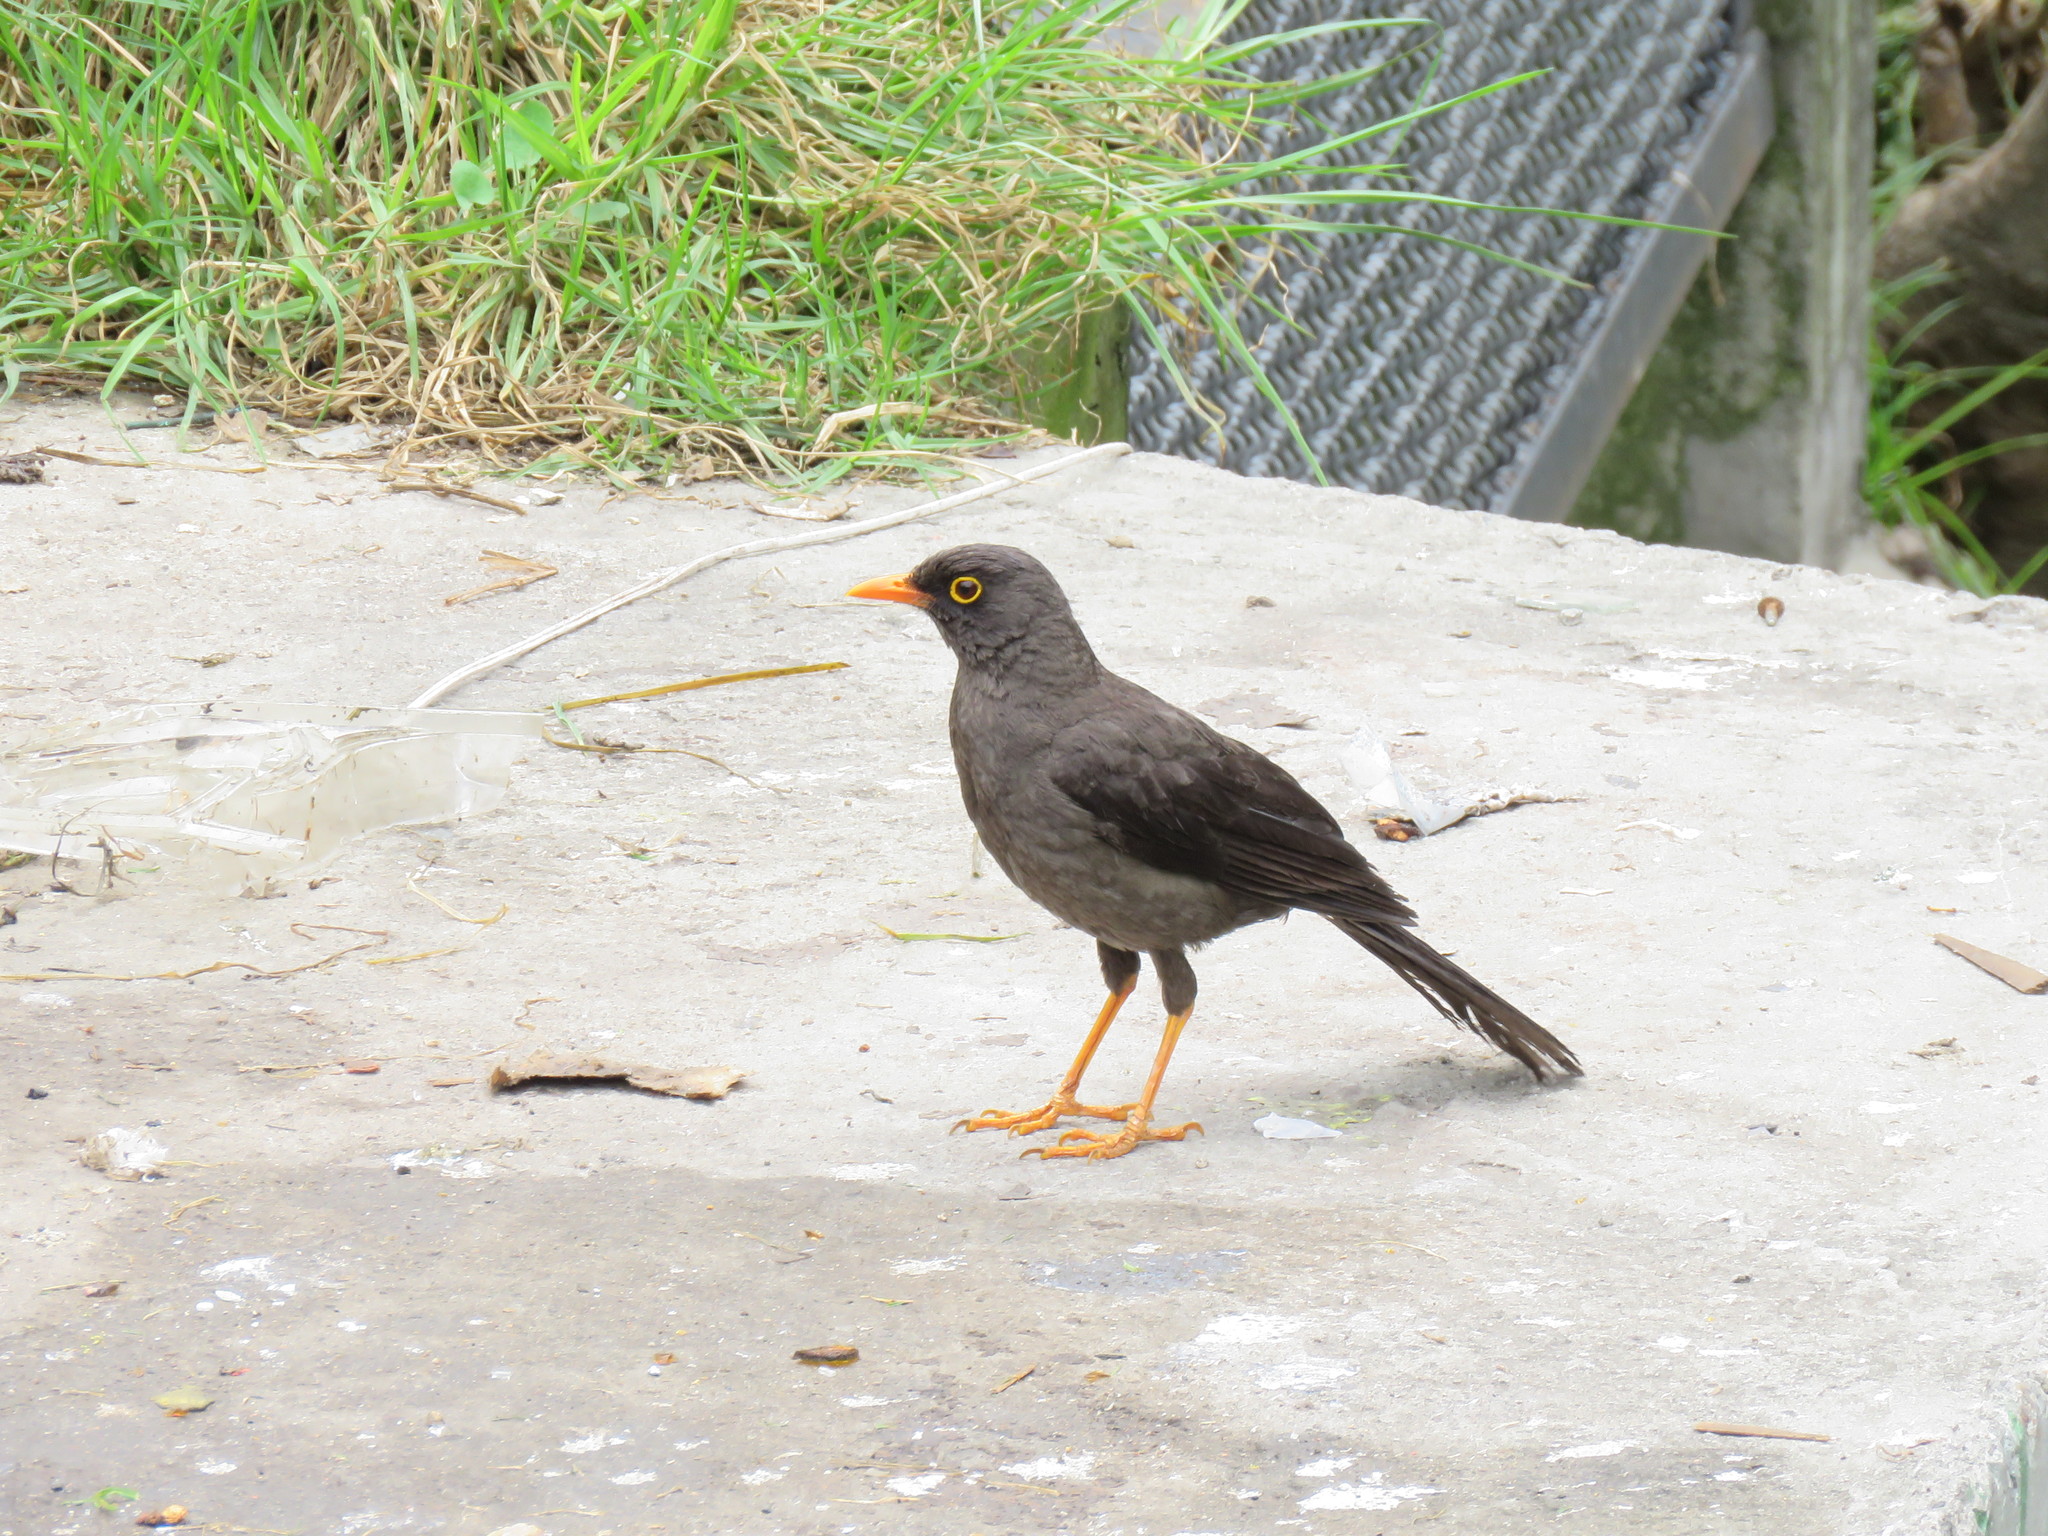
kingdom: Animalia
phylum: Chordata
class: Aves
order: Passeriformes
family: Turdidae
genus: Turdus
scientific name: Turdus fuscater
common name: Great thrush
